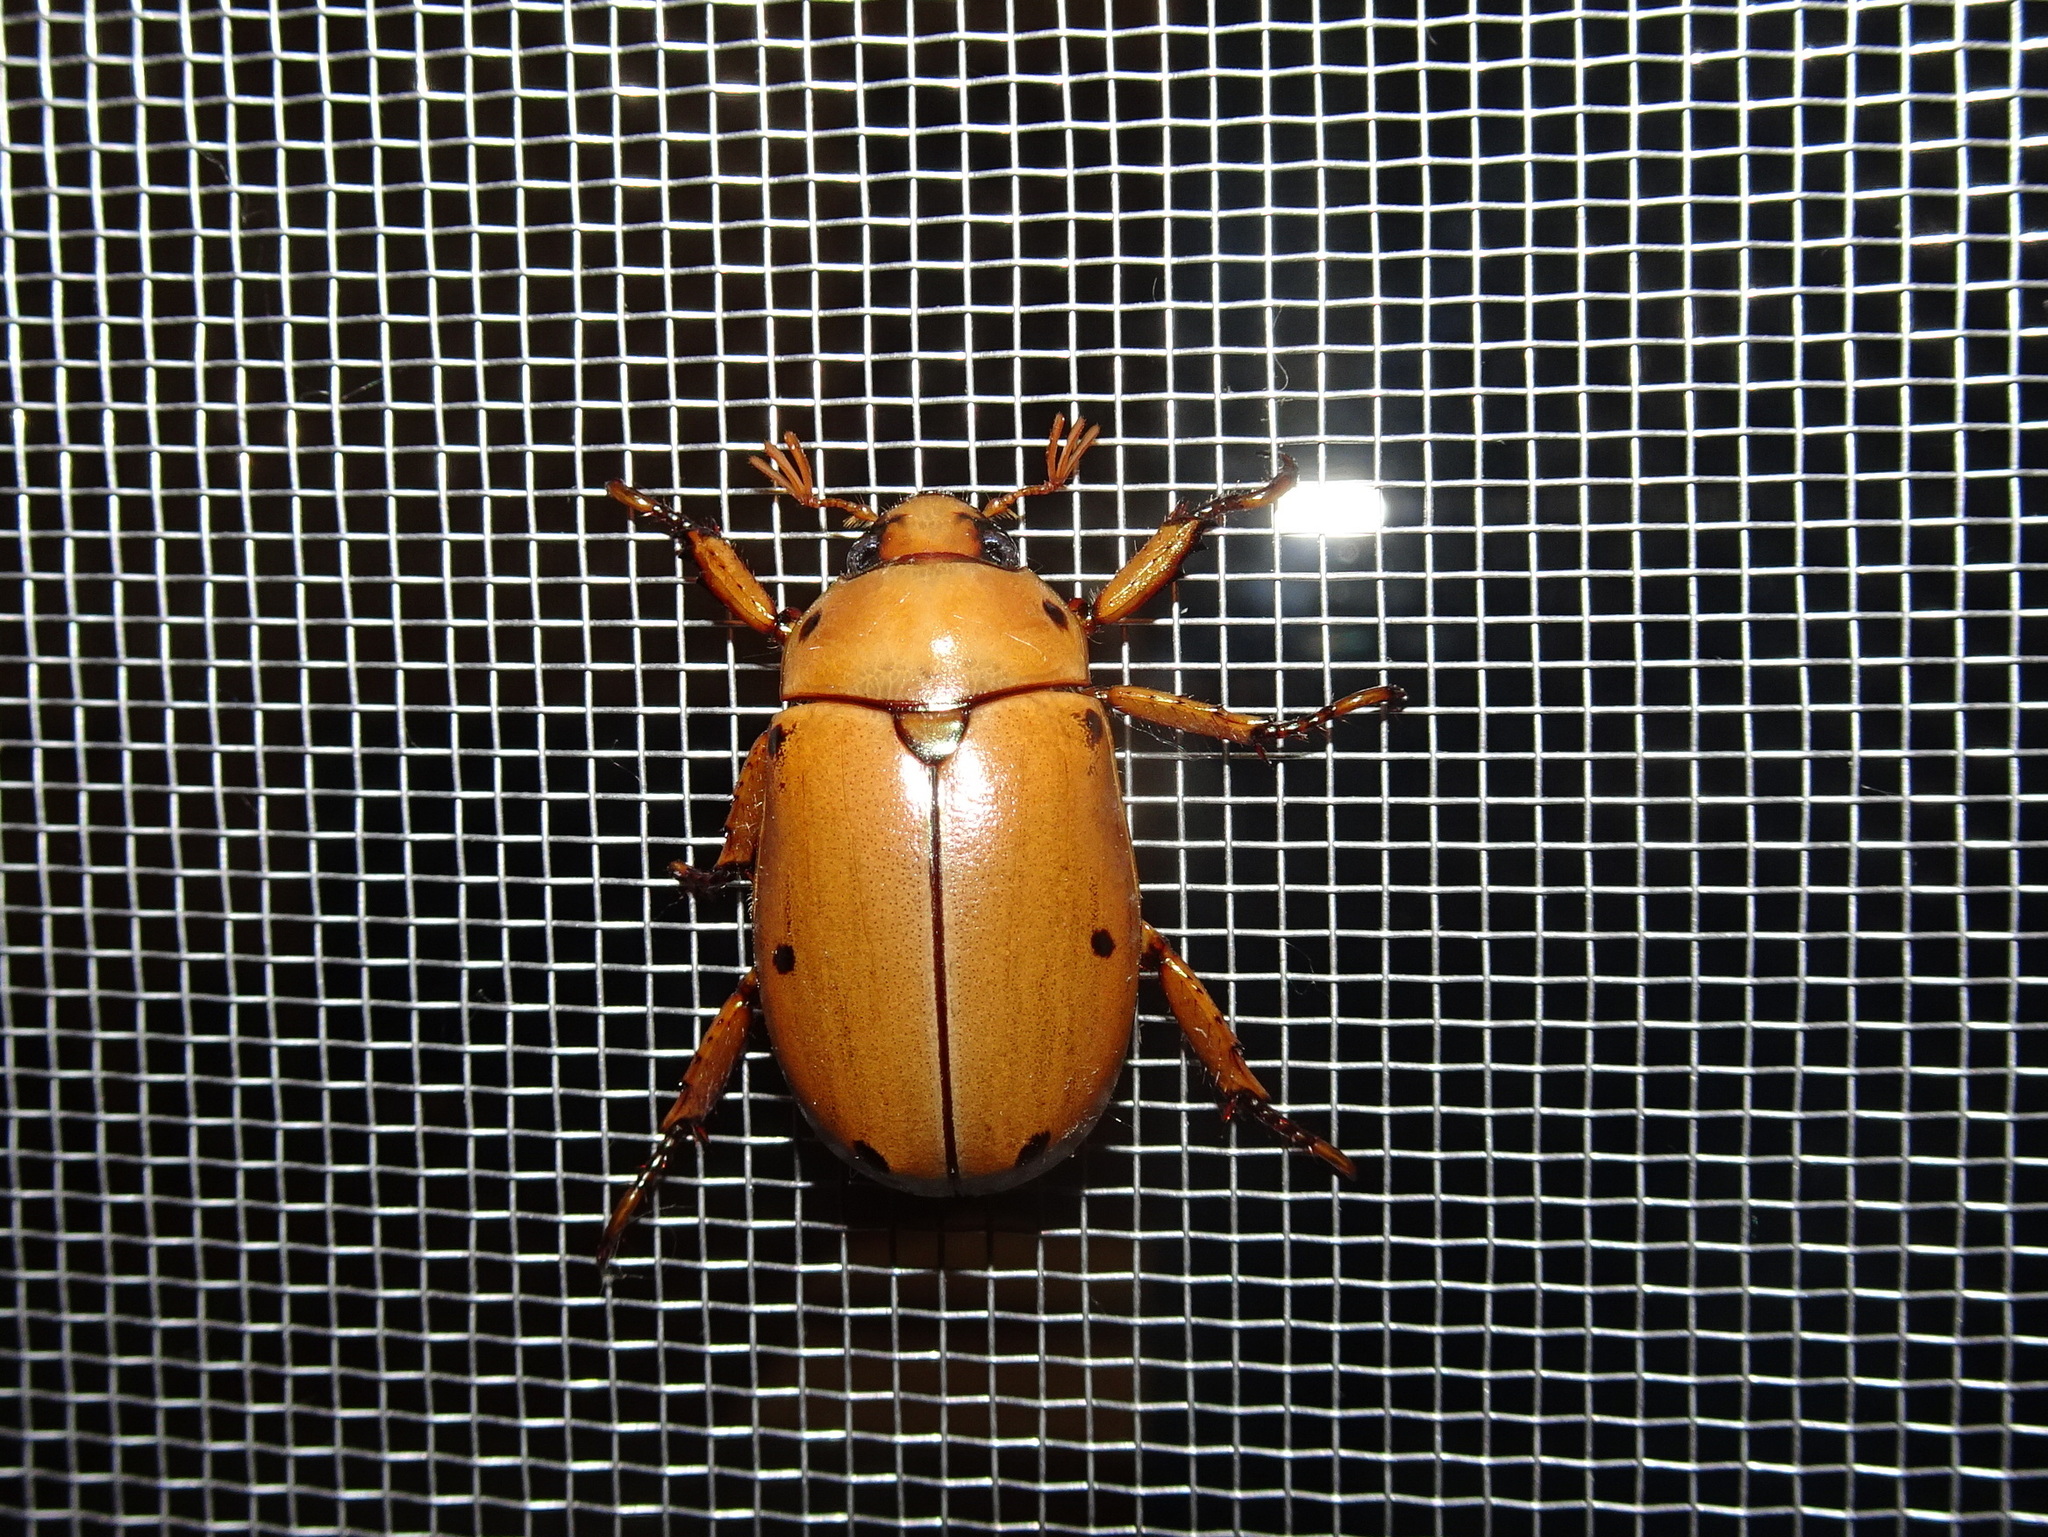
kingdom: Animalia
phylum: Arthropoda
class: Insecta
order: Coleoptera
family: Scarabaeidae
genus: Pelidnota
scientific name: Pelidnota punctata
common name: Grapevine beetle
